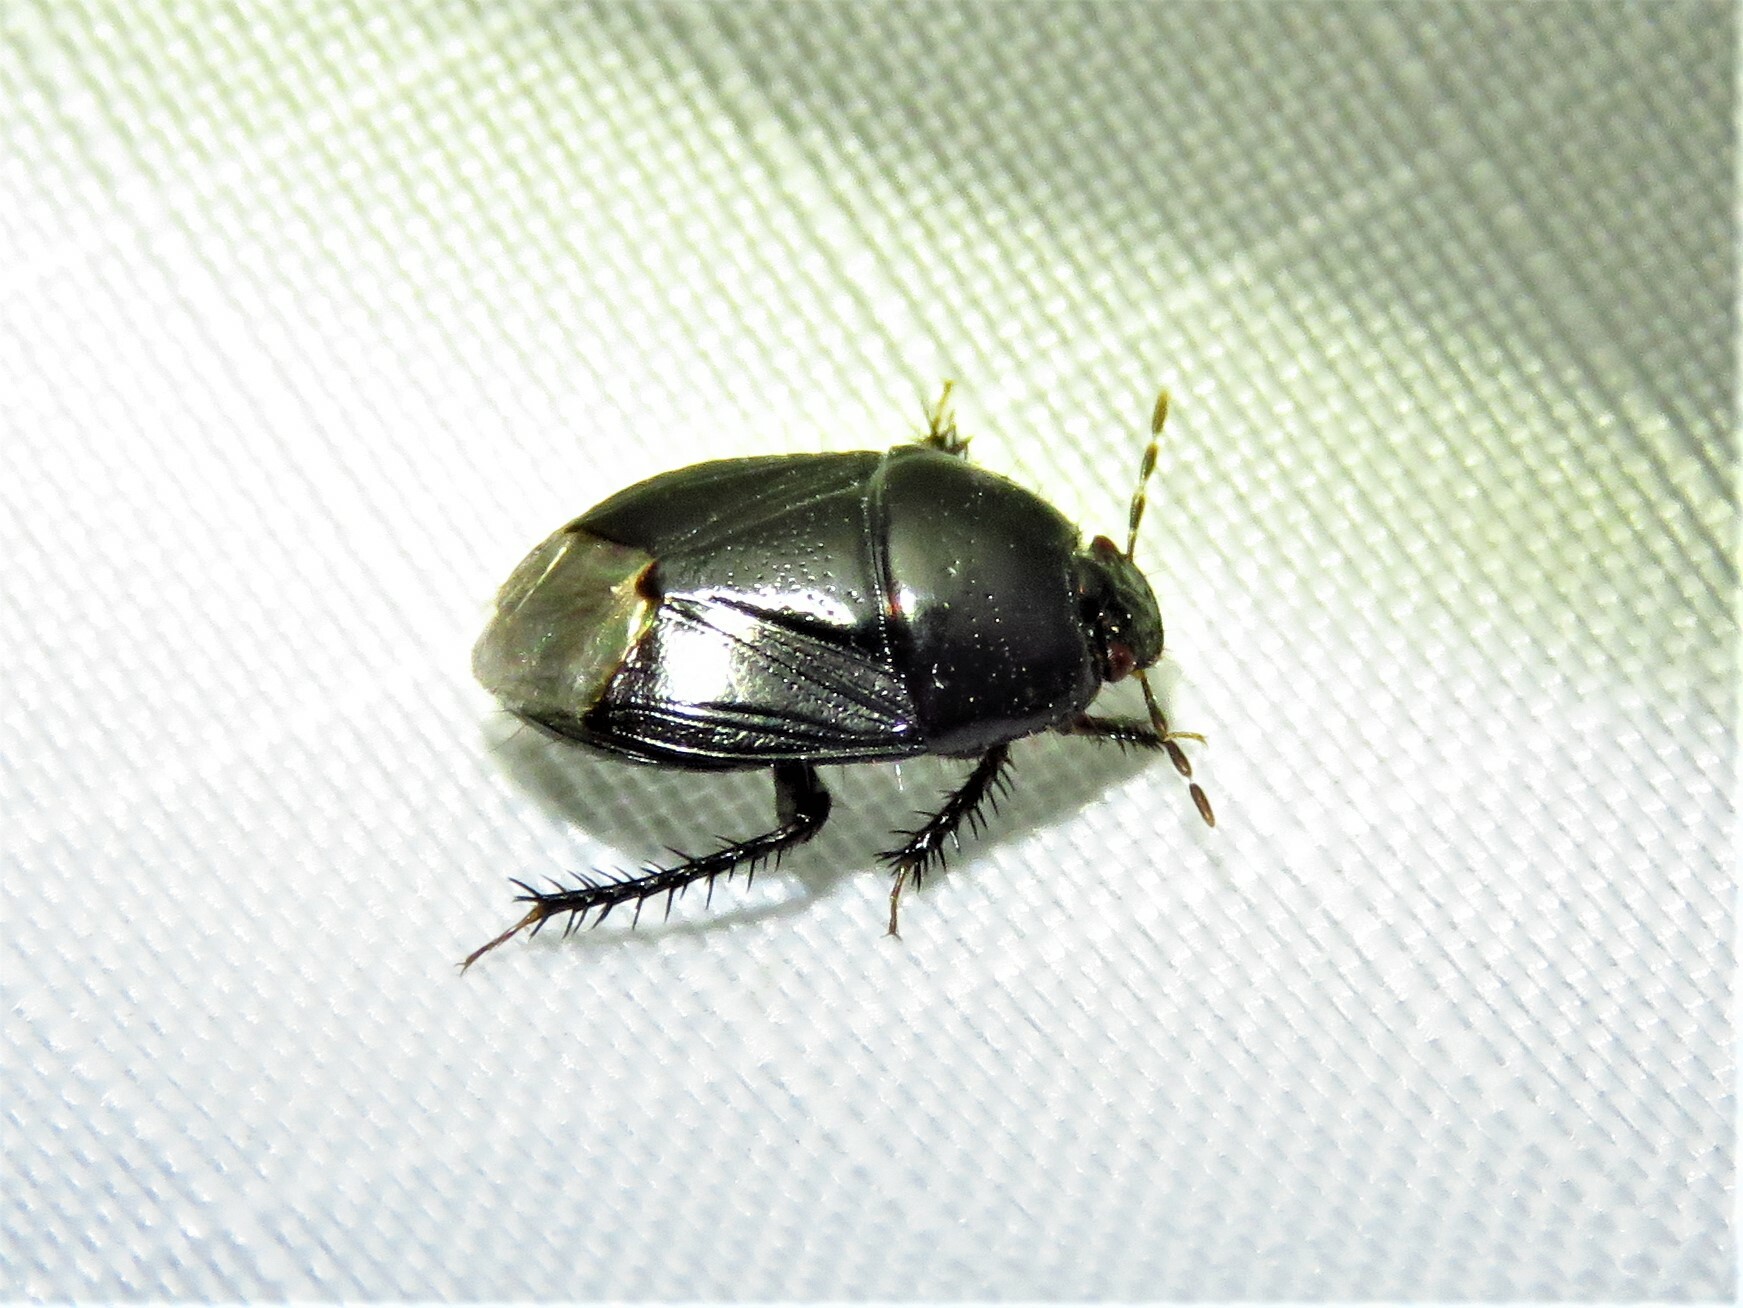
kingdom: Animalia
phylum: Arthropoda
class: Insecta
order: Hemiptera
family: Cydnidae
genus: Pangaeus
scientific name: Pangaeus bilineatus
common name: Burrower bug
